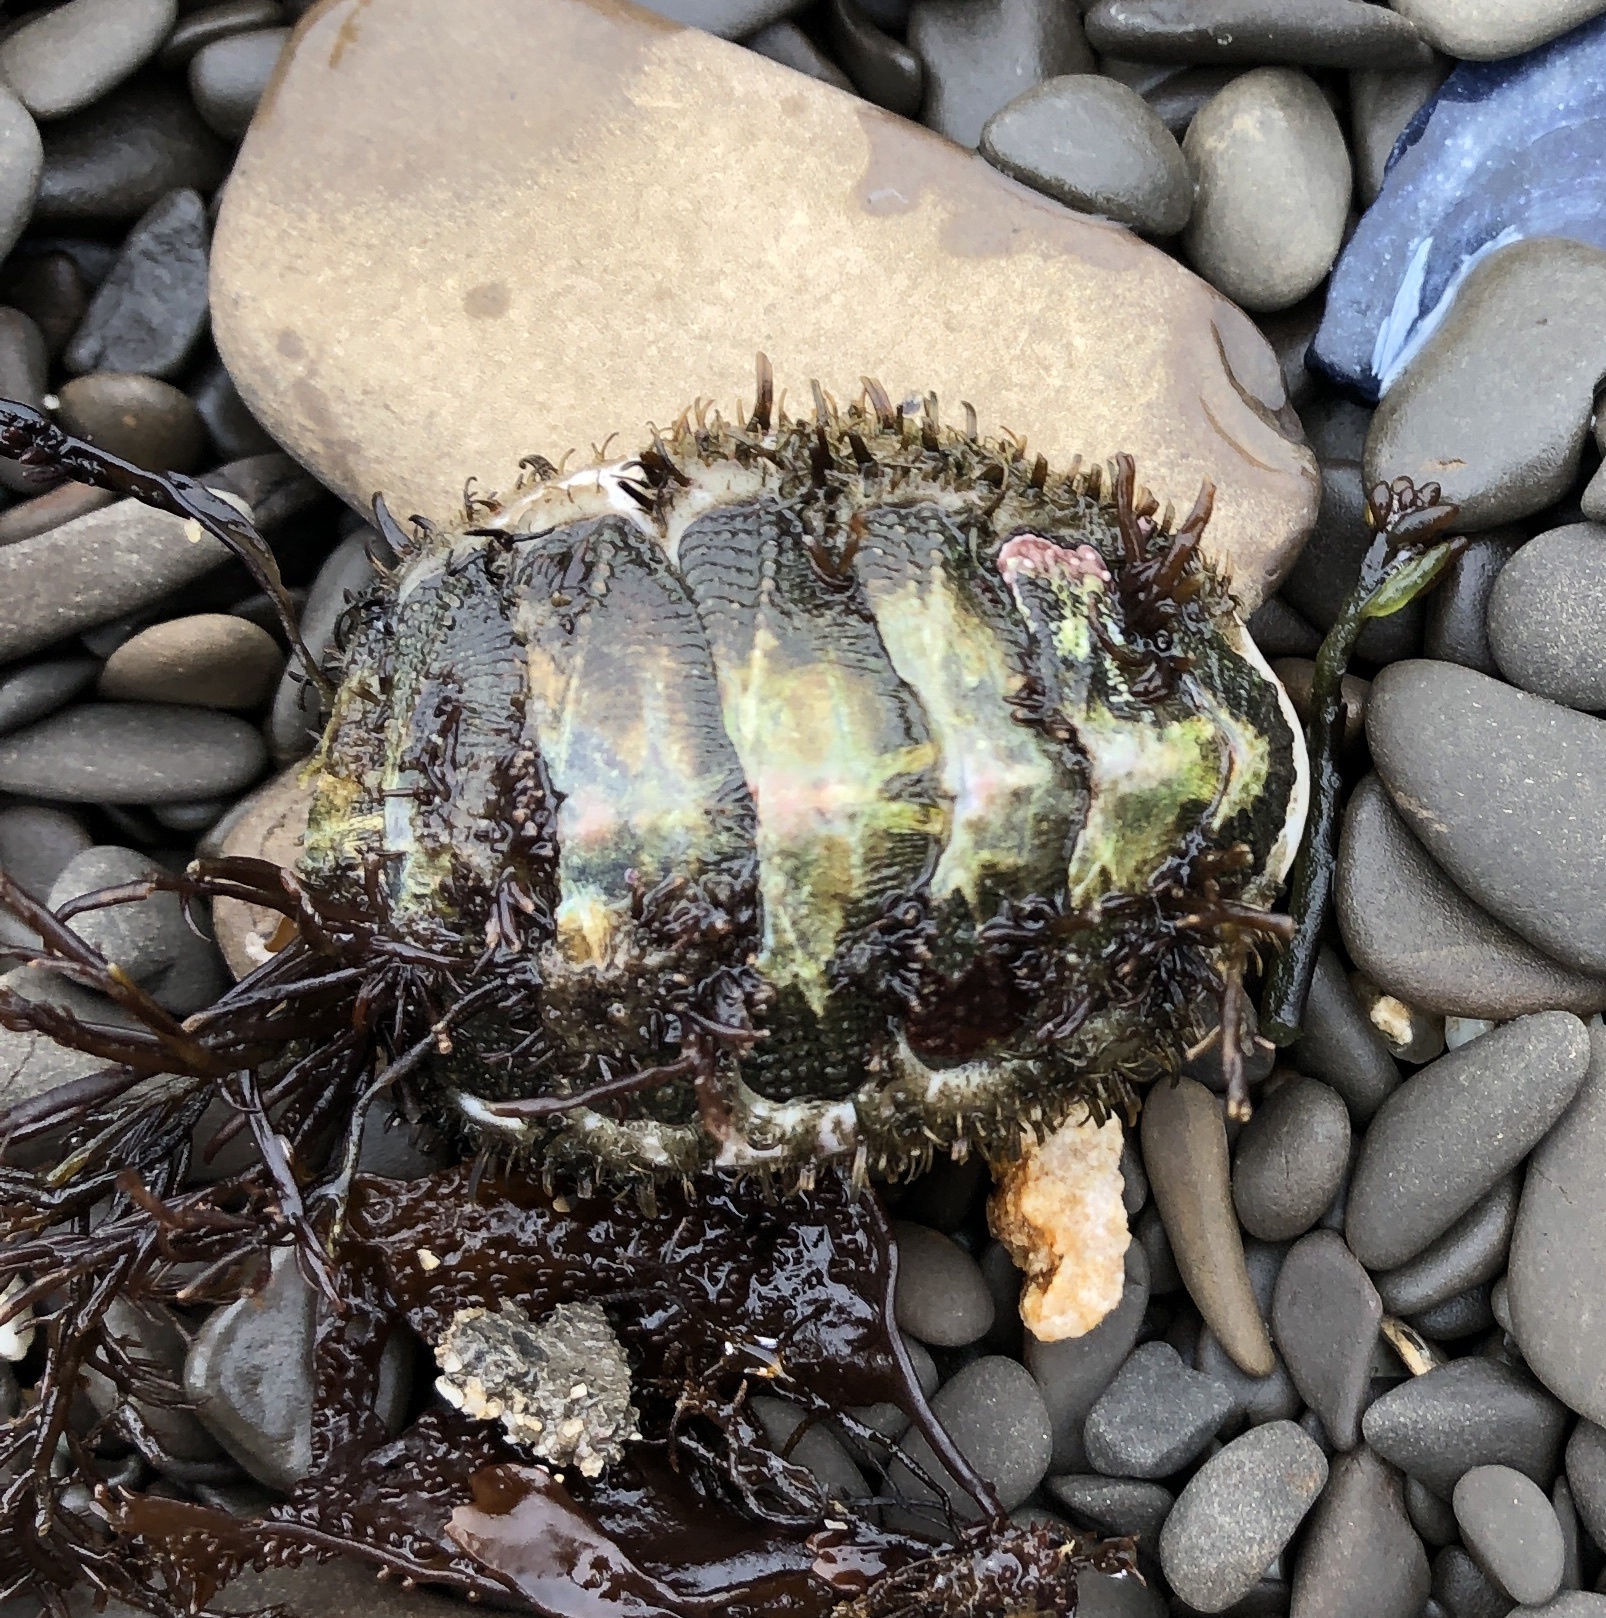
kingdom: Animalia
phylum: Mollusca
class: Polyplacophora
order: Chitonida
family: Mopaliidae
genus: Mopalia
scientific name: Mopalia muscosa
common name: Mossy chiton
